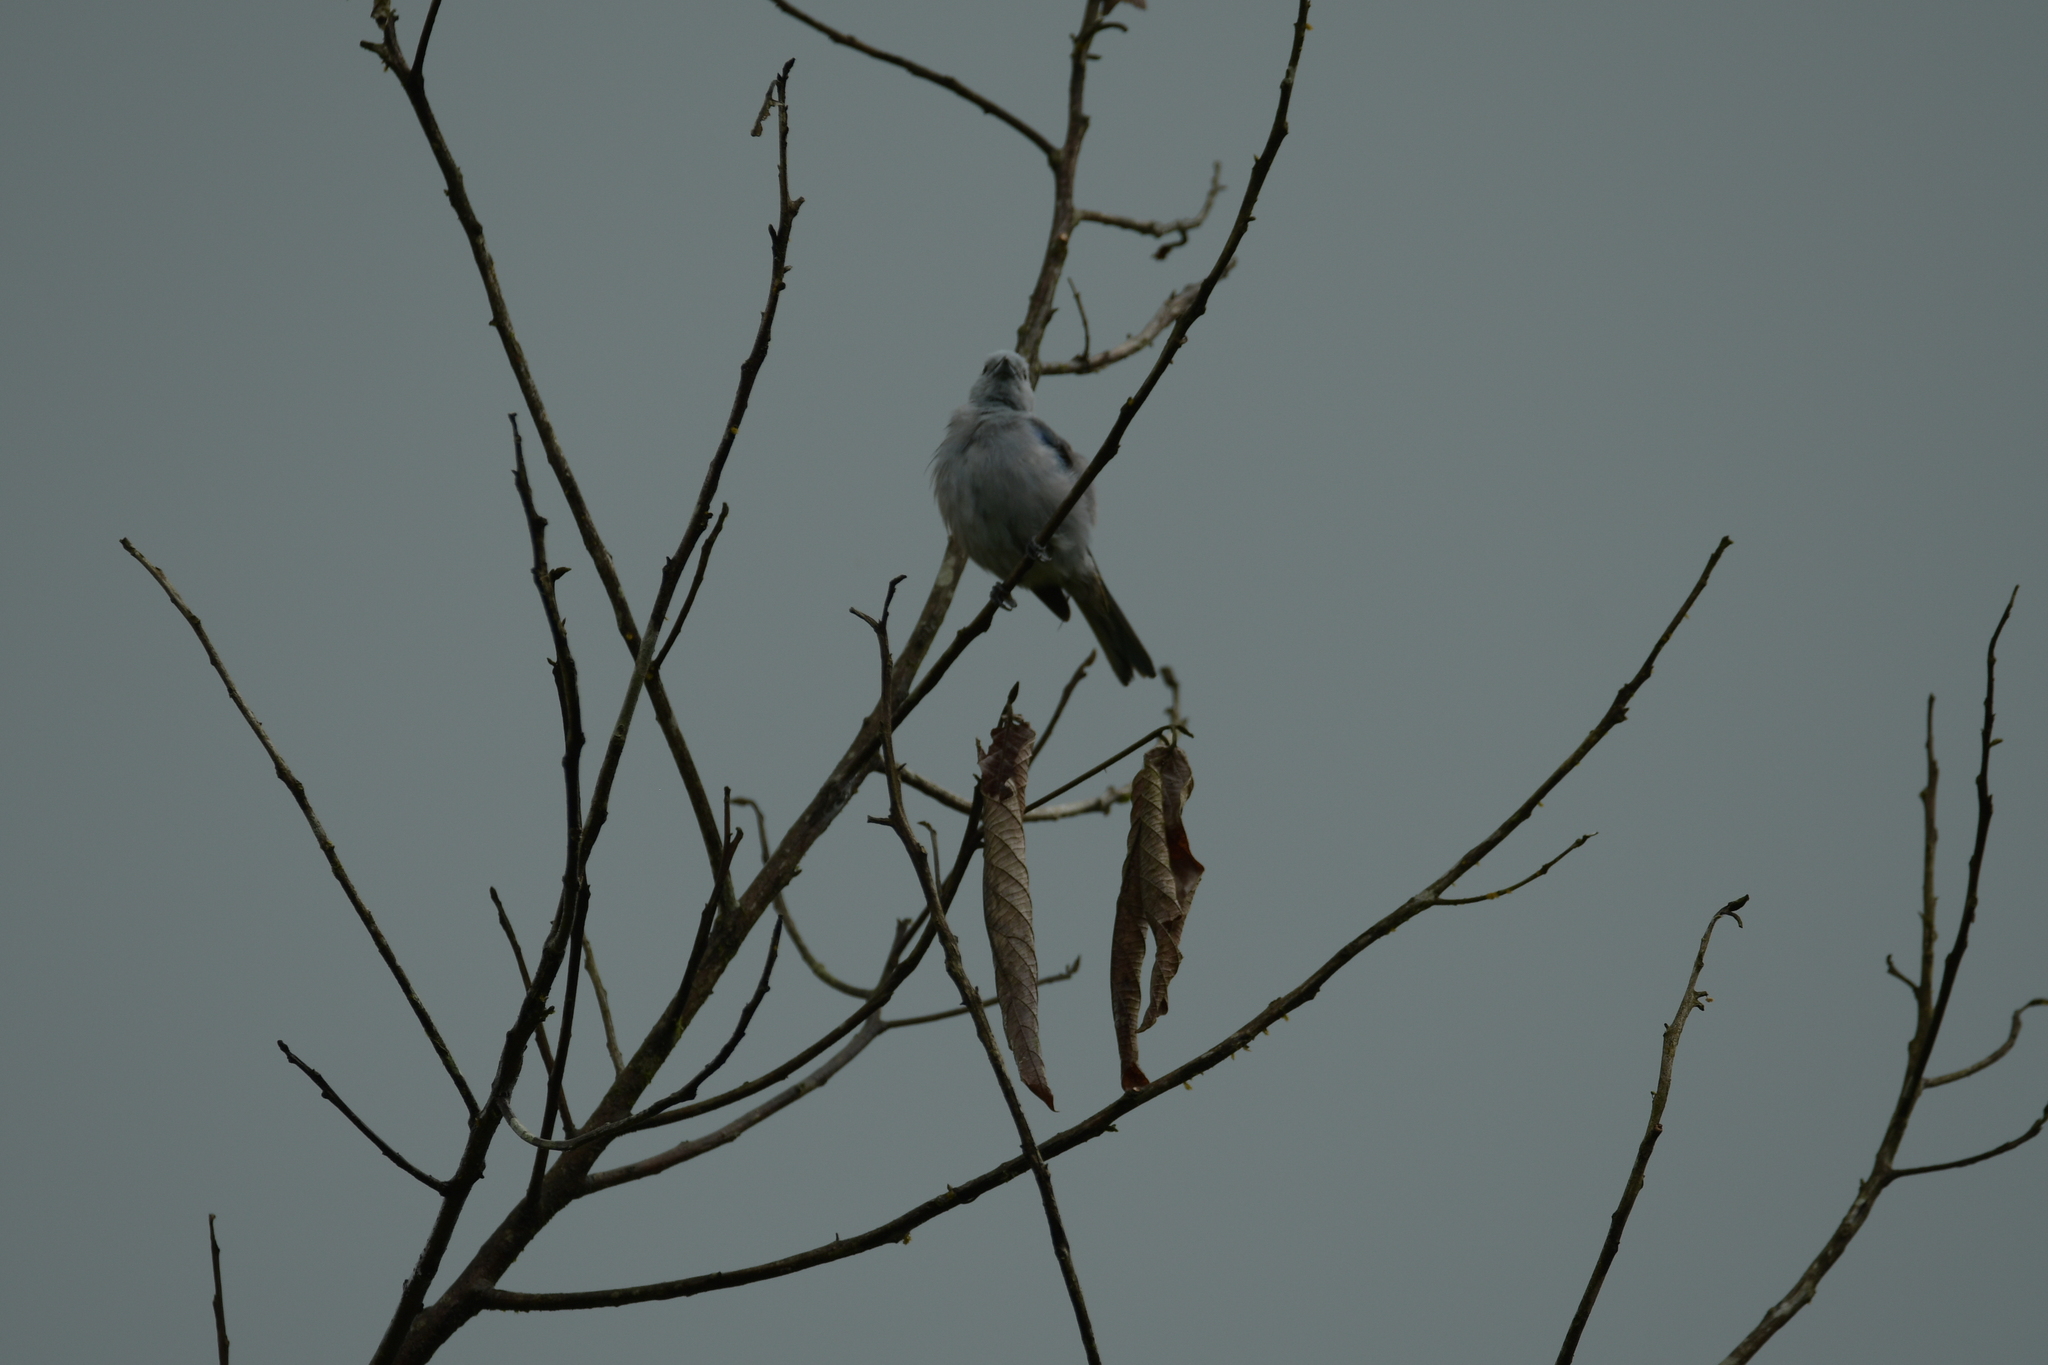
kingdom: Animalia
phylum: Chordata
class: Aves
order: Passeriformes
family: Thraupidae
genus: Thraupis
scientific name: Thraupis episcopus
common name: Blue-grey tanager
